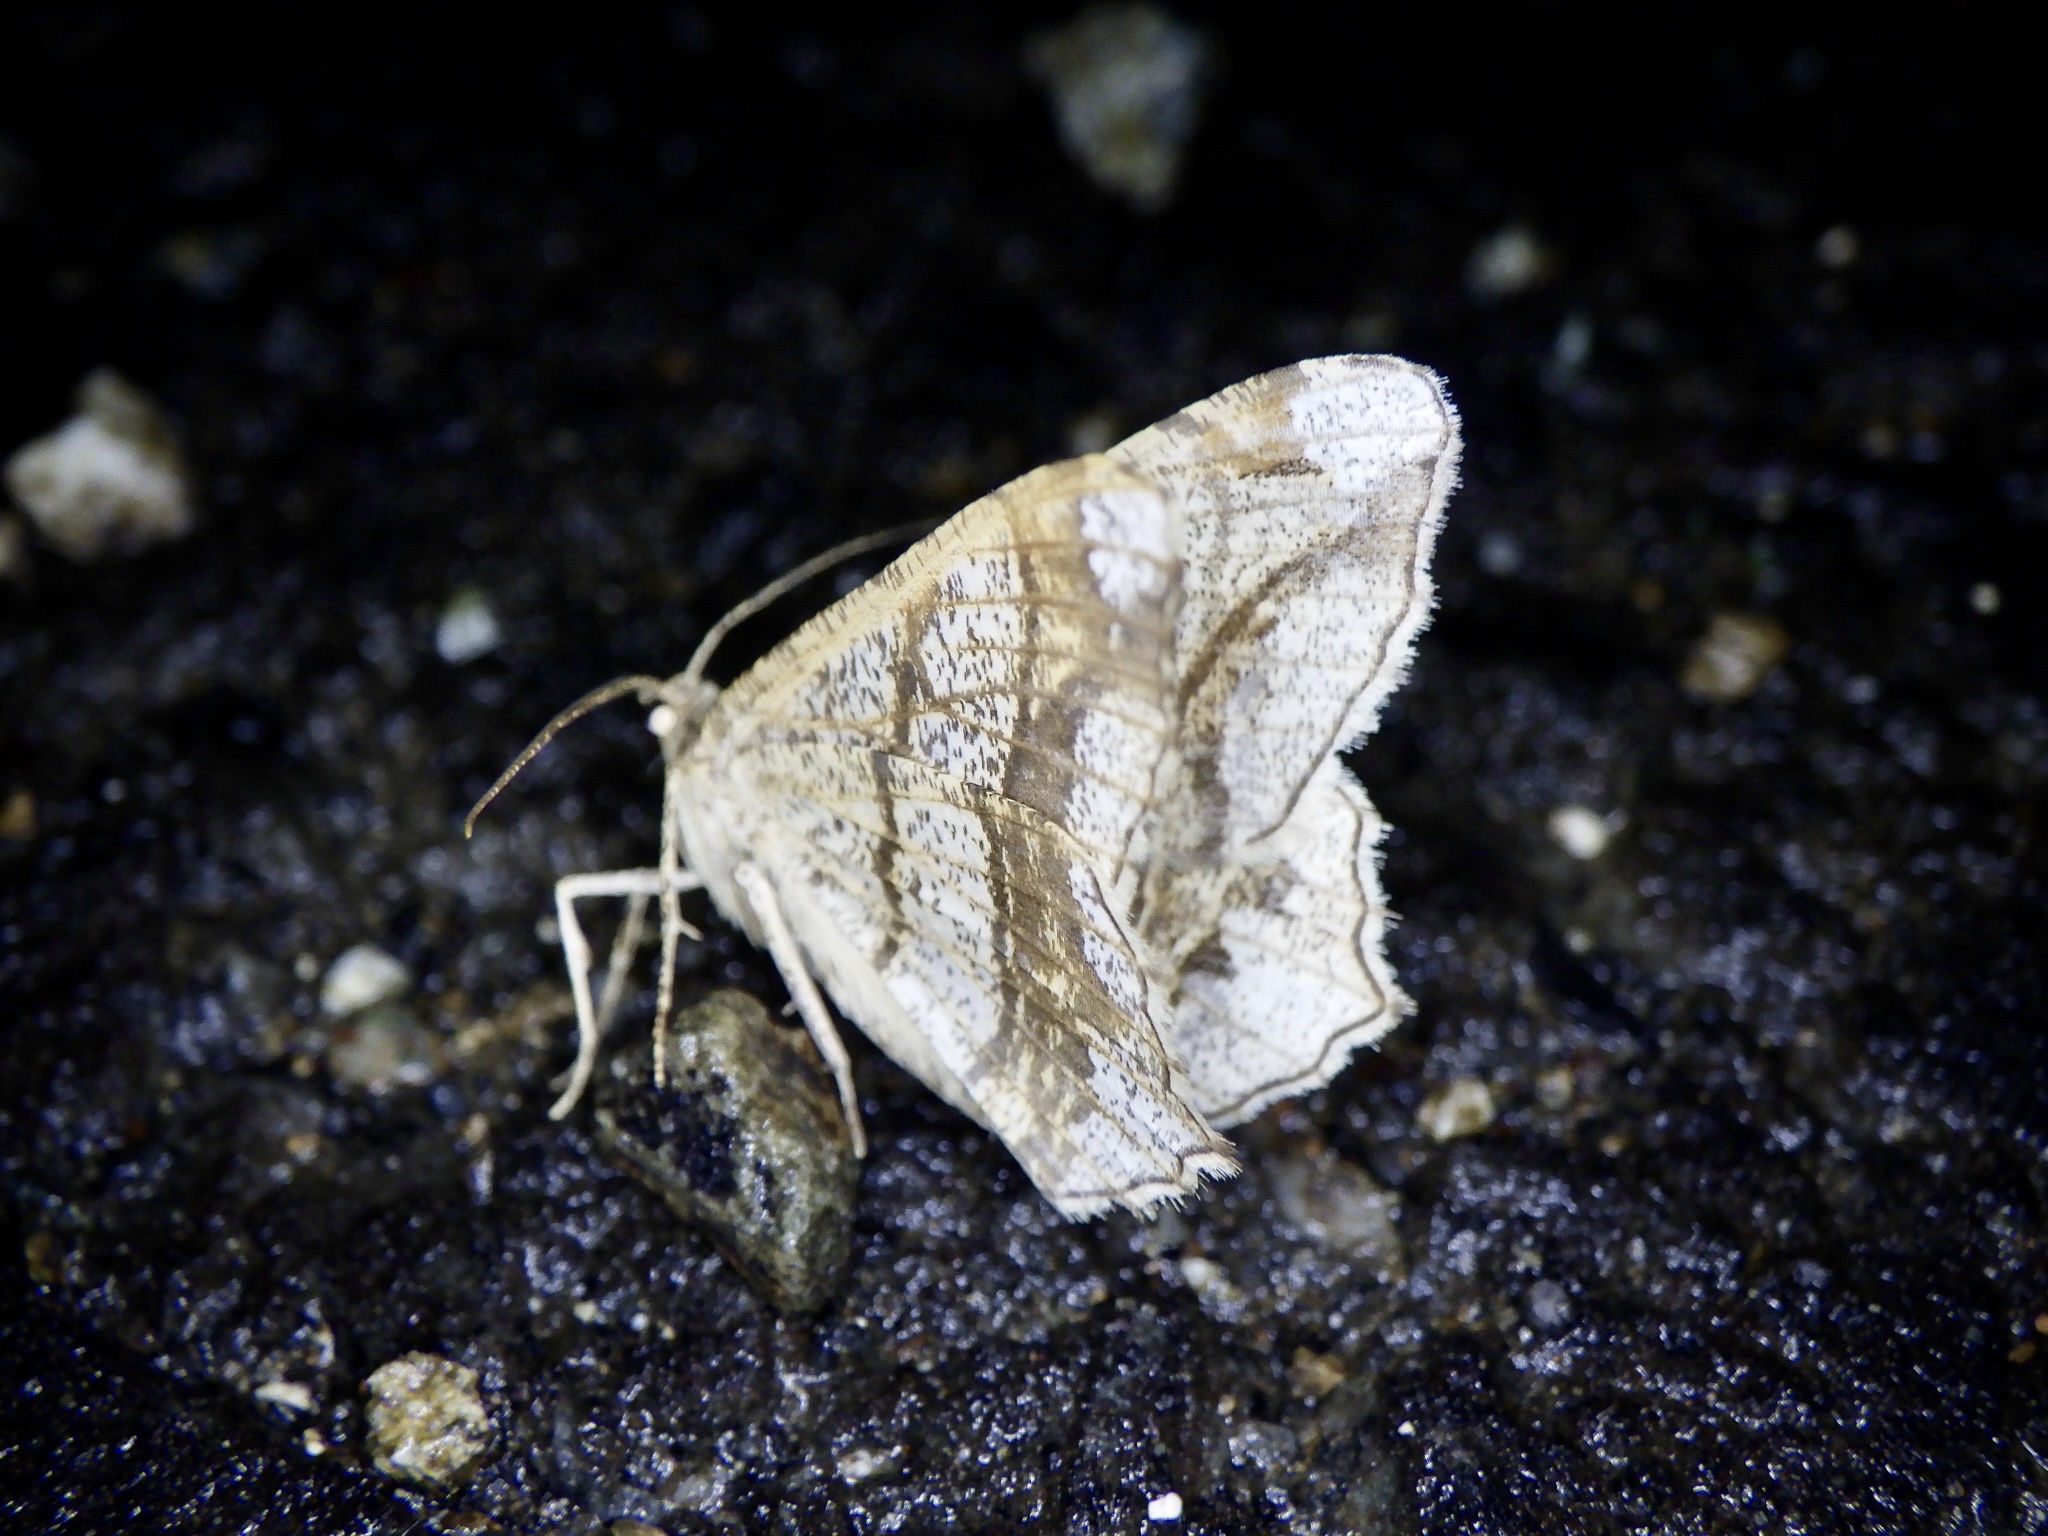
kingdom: Animalia
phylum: Arthropoda
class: Insecta
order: Lepidoptera
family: Geometridae
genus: Chiasmia
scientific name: Chiasmia defixaria
